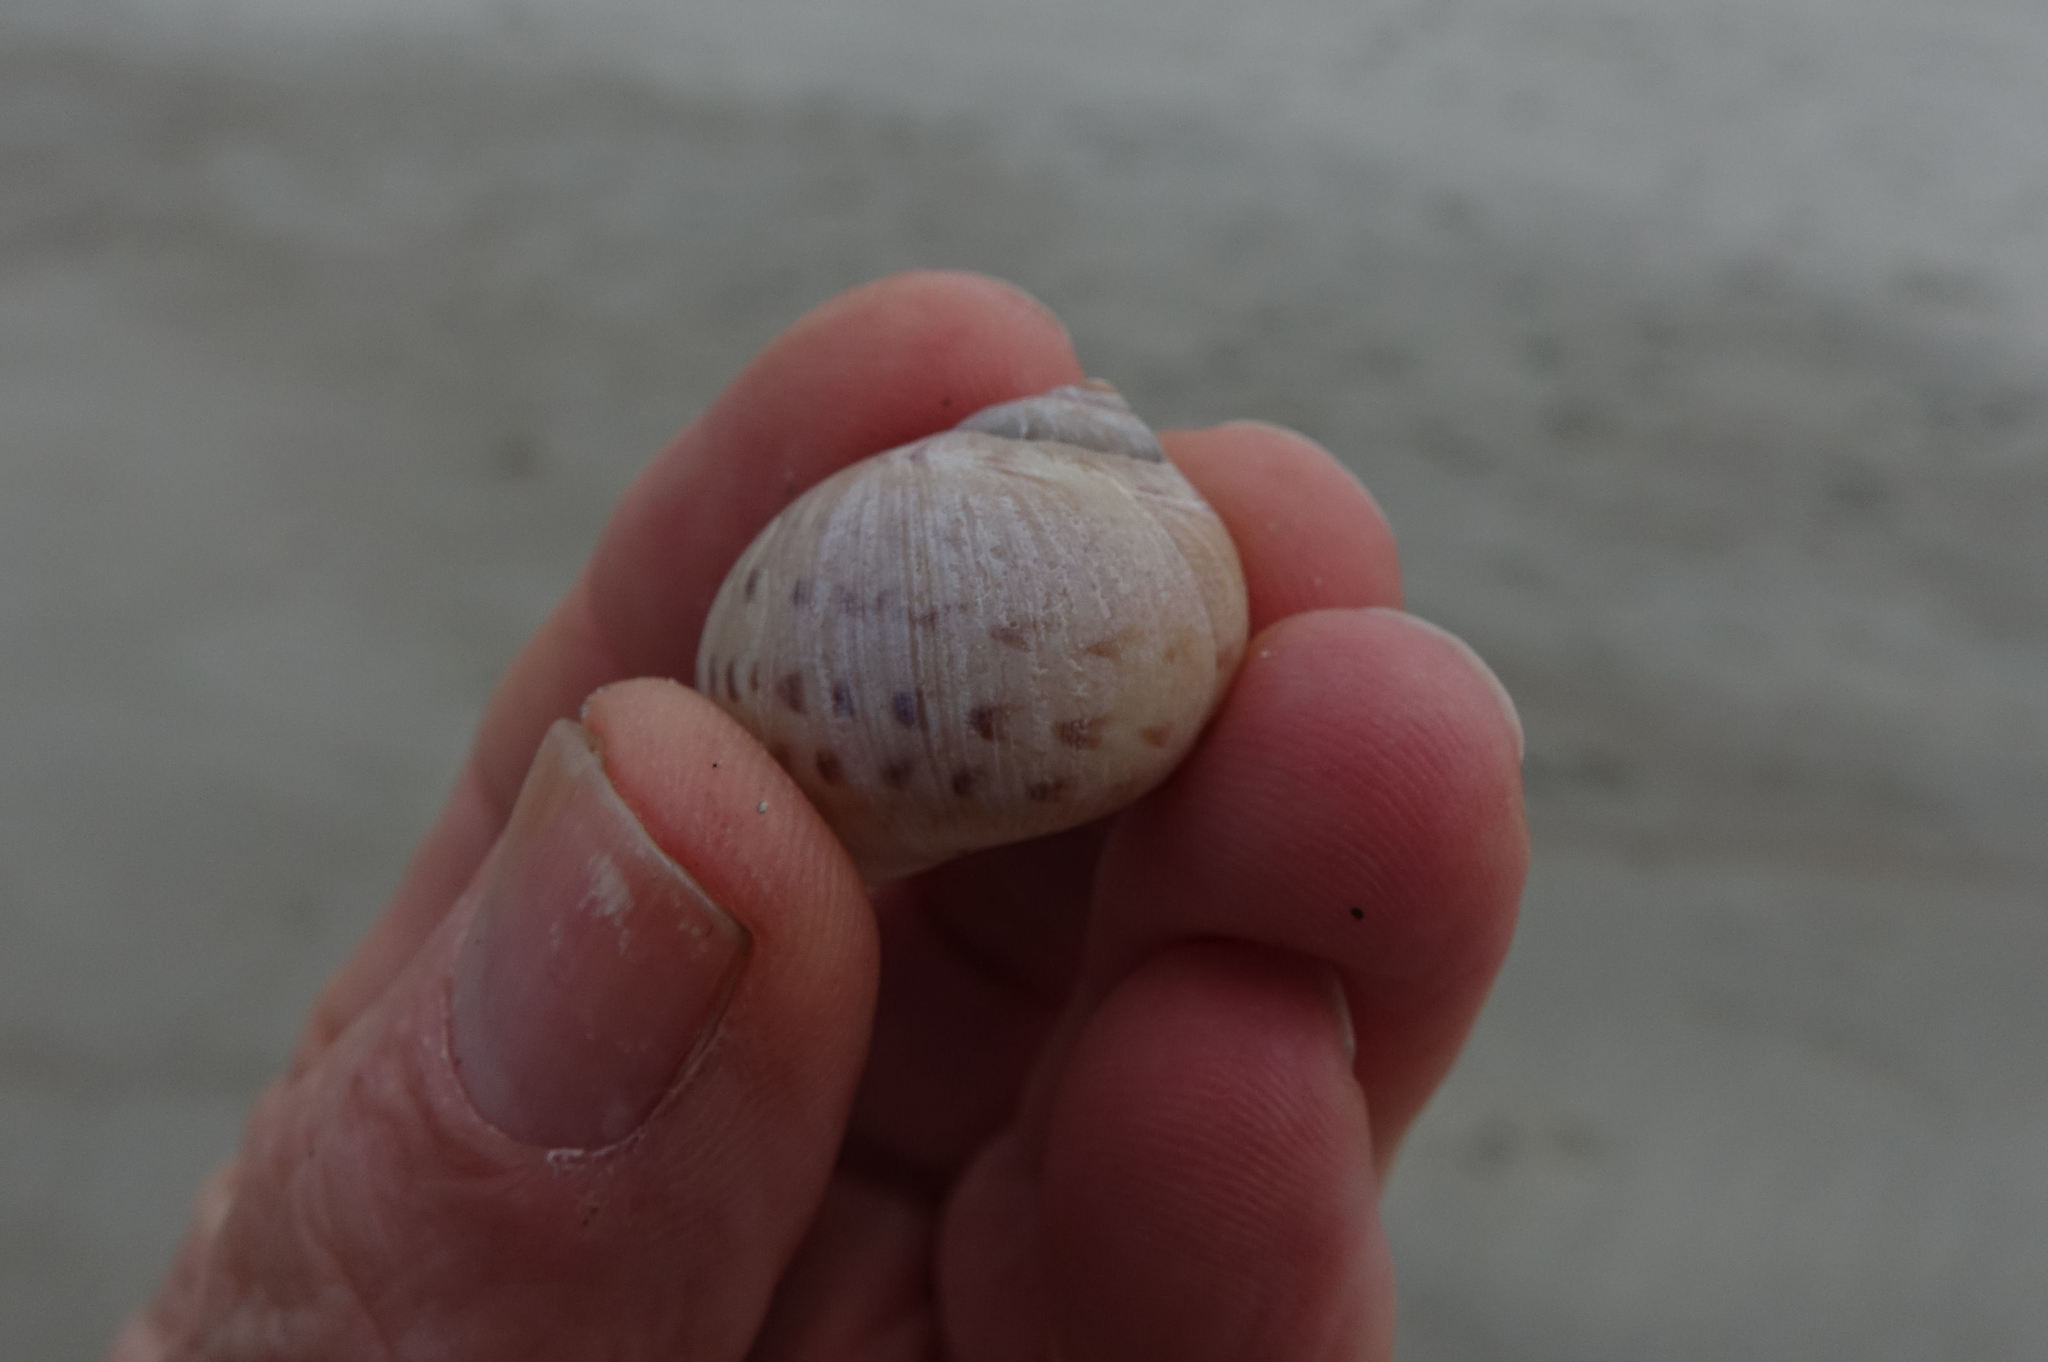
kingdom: Animalia
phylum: Mollusca
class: Gastropoda
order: Littorinimorpha
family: Naticidae
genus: Tanea
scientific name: Tanea zelandica
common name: New zealand moonsnail
